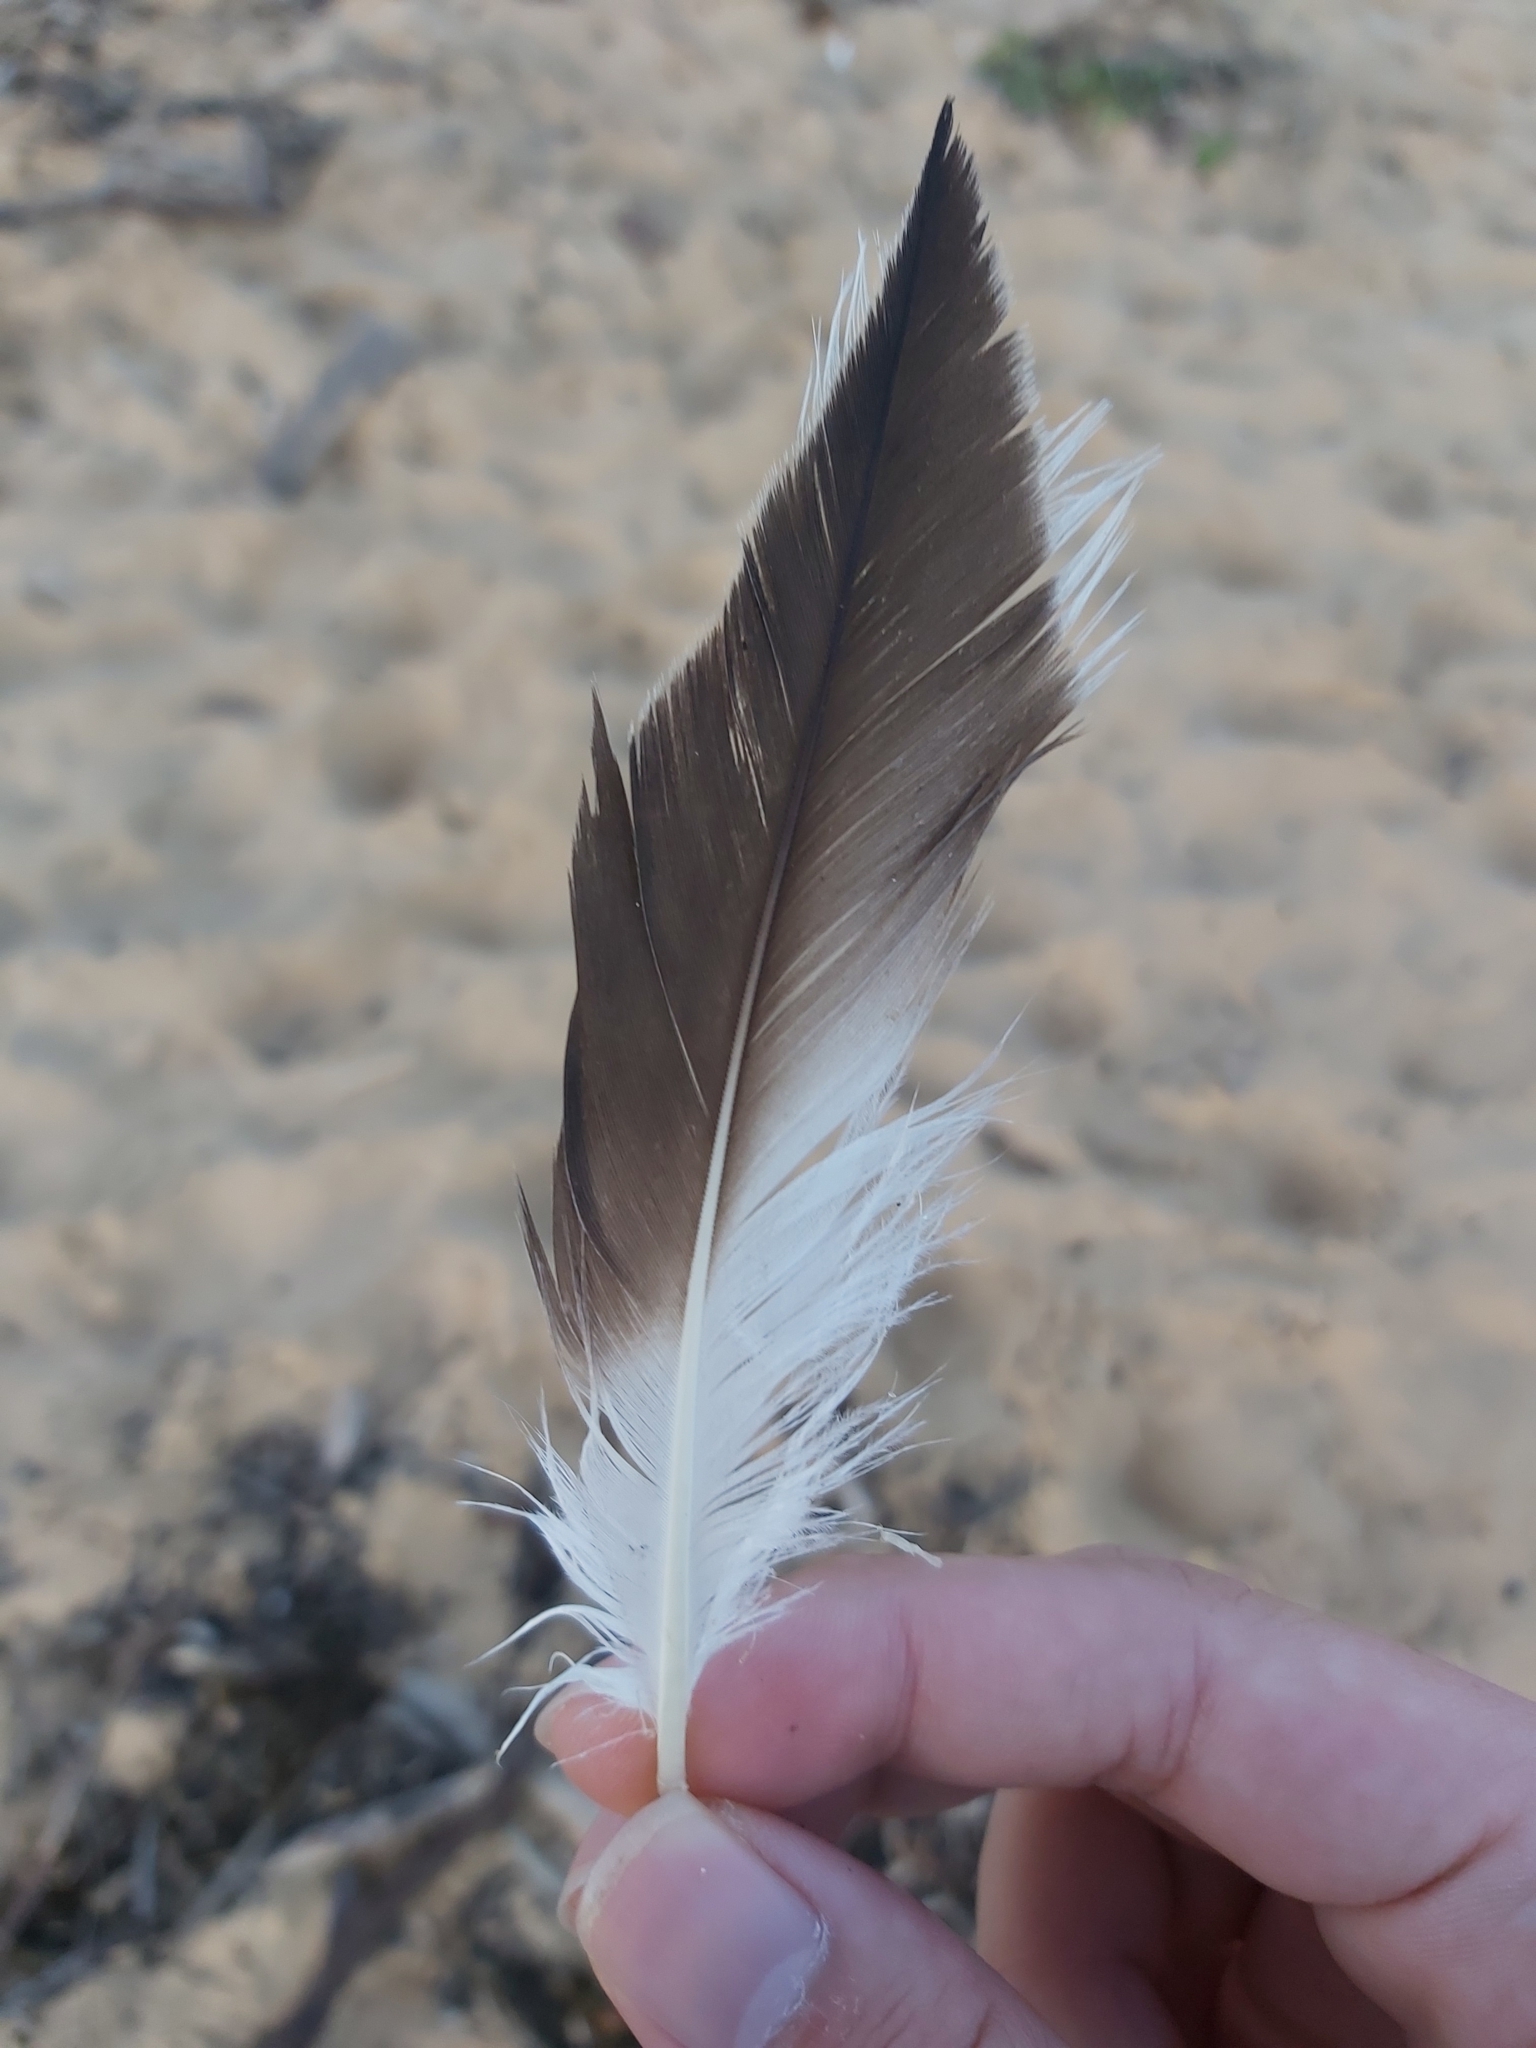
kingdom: Animalia
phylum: Chordata
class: Aves
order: Suliformes
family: Sulidae
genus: Morus
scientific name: Morus serrator
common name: Australasian gannet
